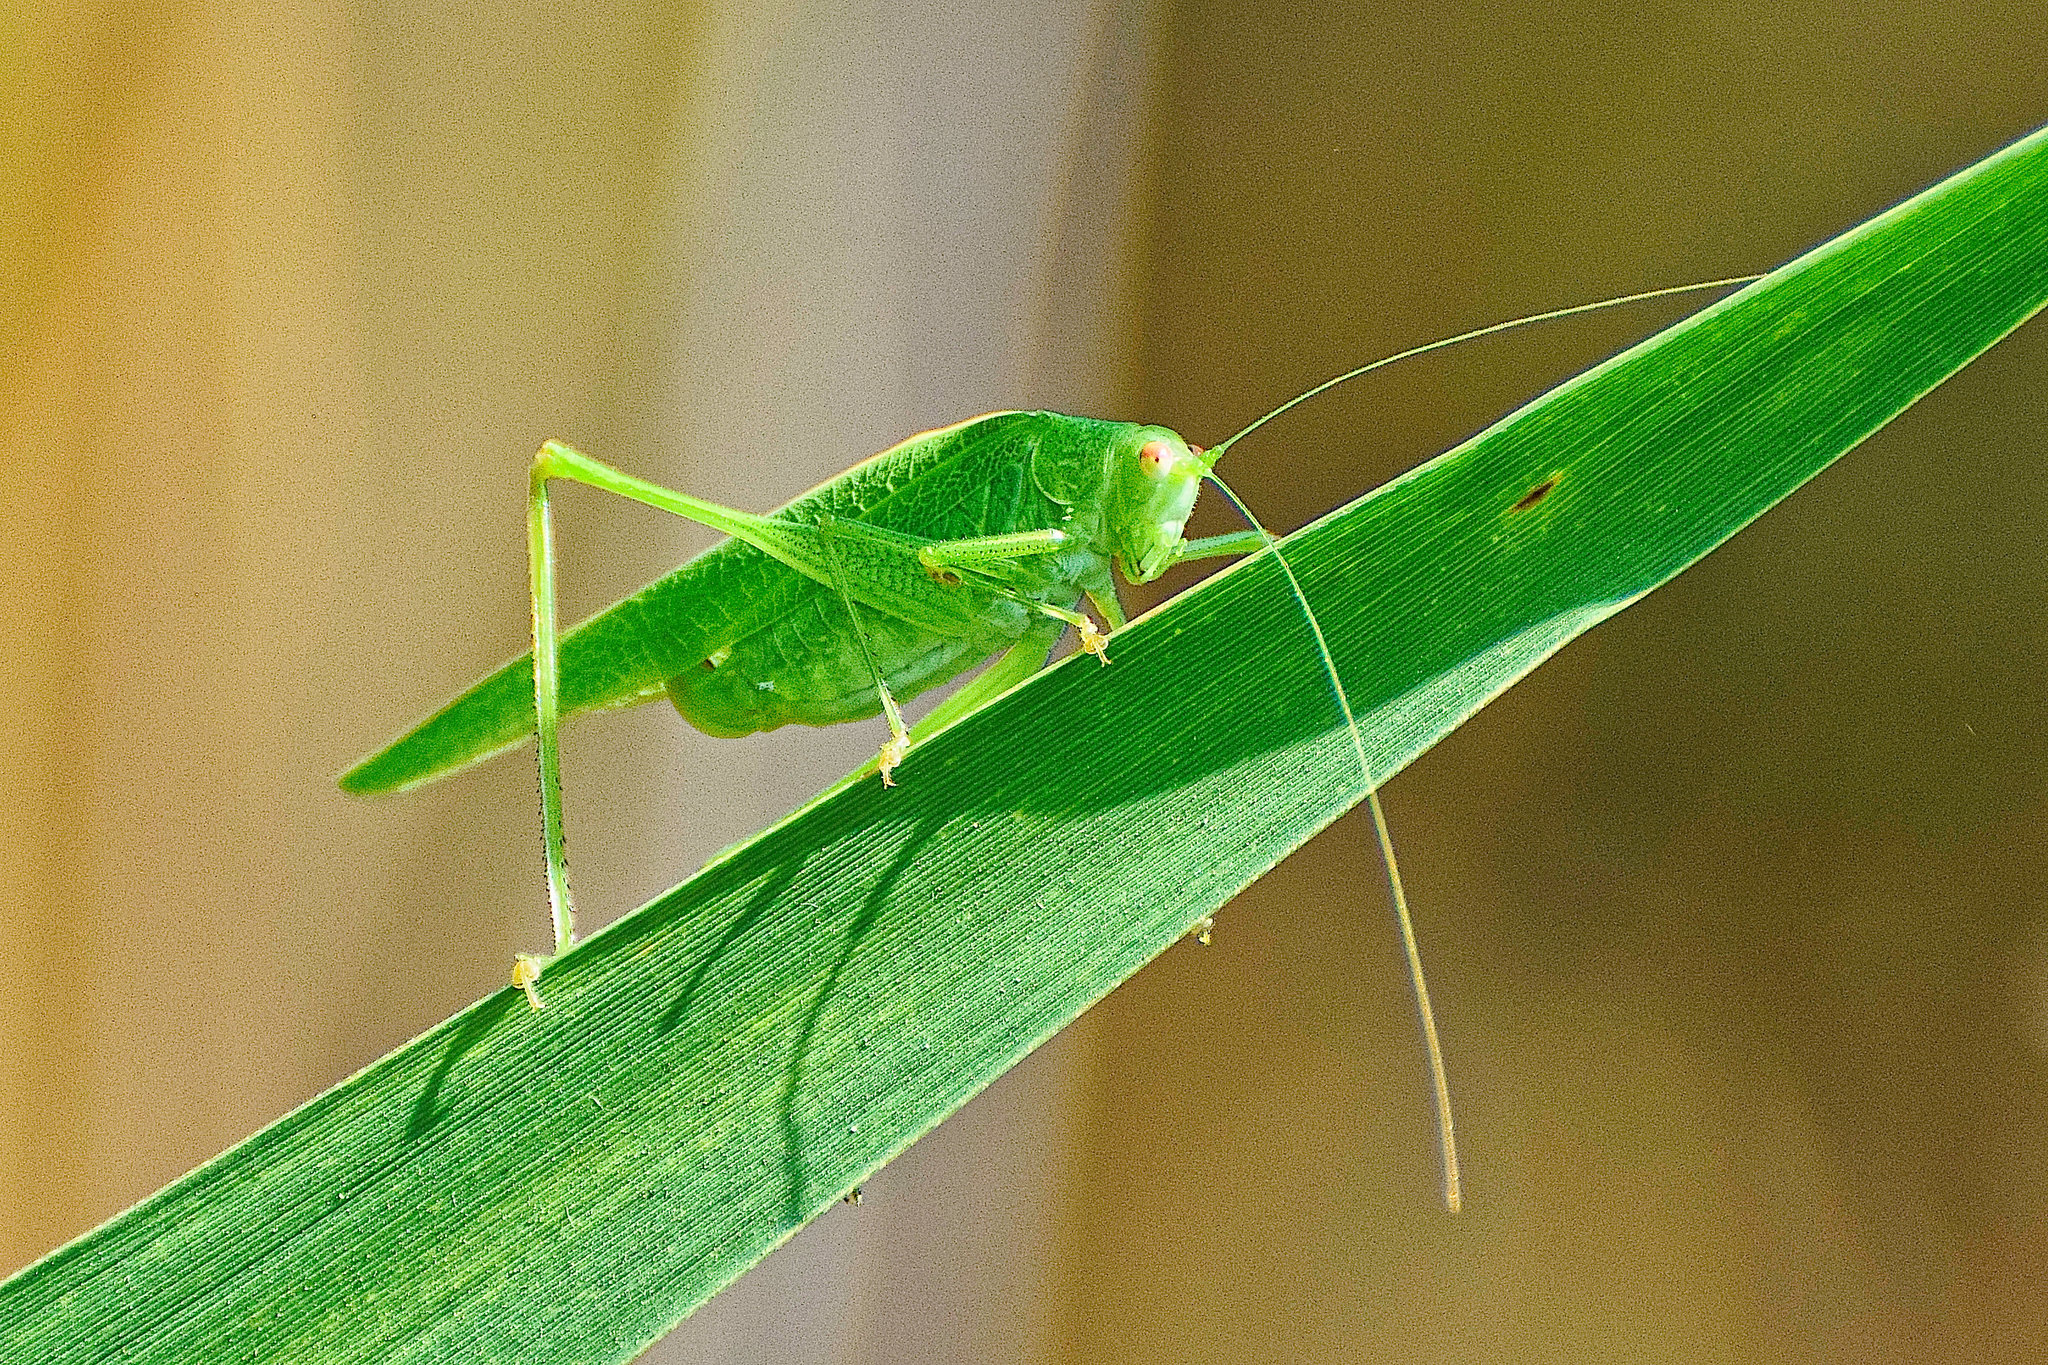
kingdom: Animalia
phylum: Arthropoda
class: Insecta
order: Orthoptera
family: Tettigoniidae
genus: Phaneroptera
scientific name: Phaneroptera nana
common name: Southern sickle bush-cricket
